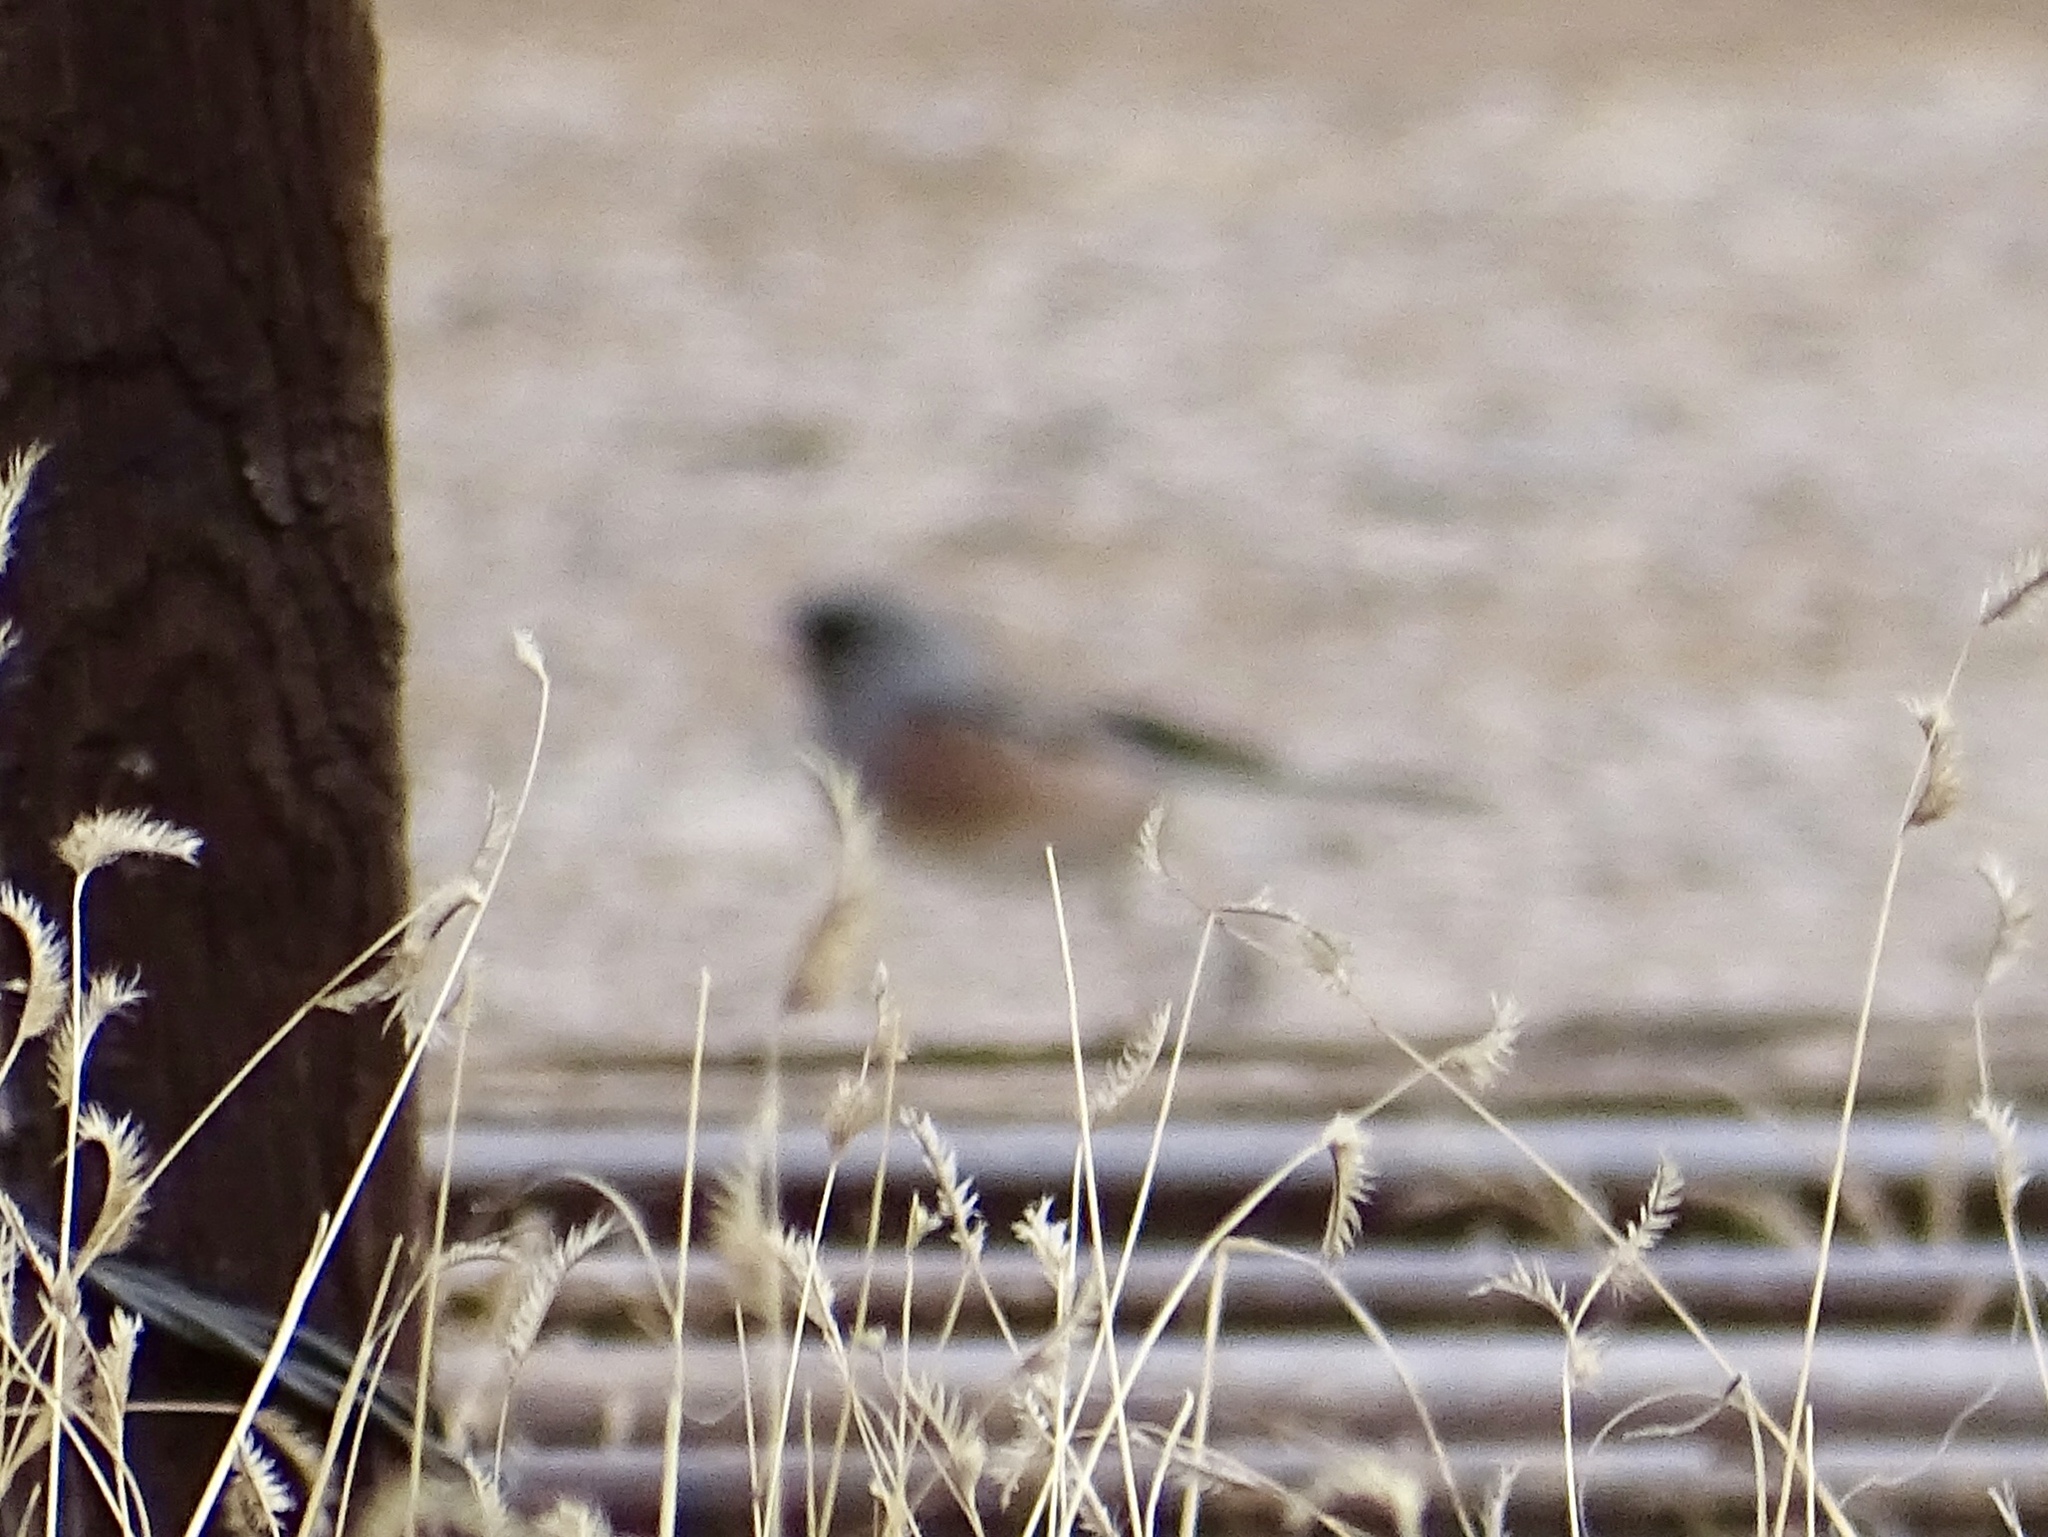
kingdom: Animalia
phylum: Chordata
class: Aves
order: Passeriformes
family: Passerellidae
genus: Junco
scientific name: Junco hyemalis
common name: Dark-eyed junco
